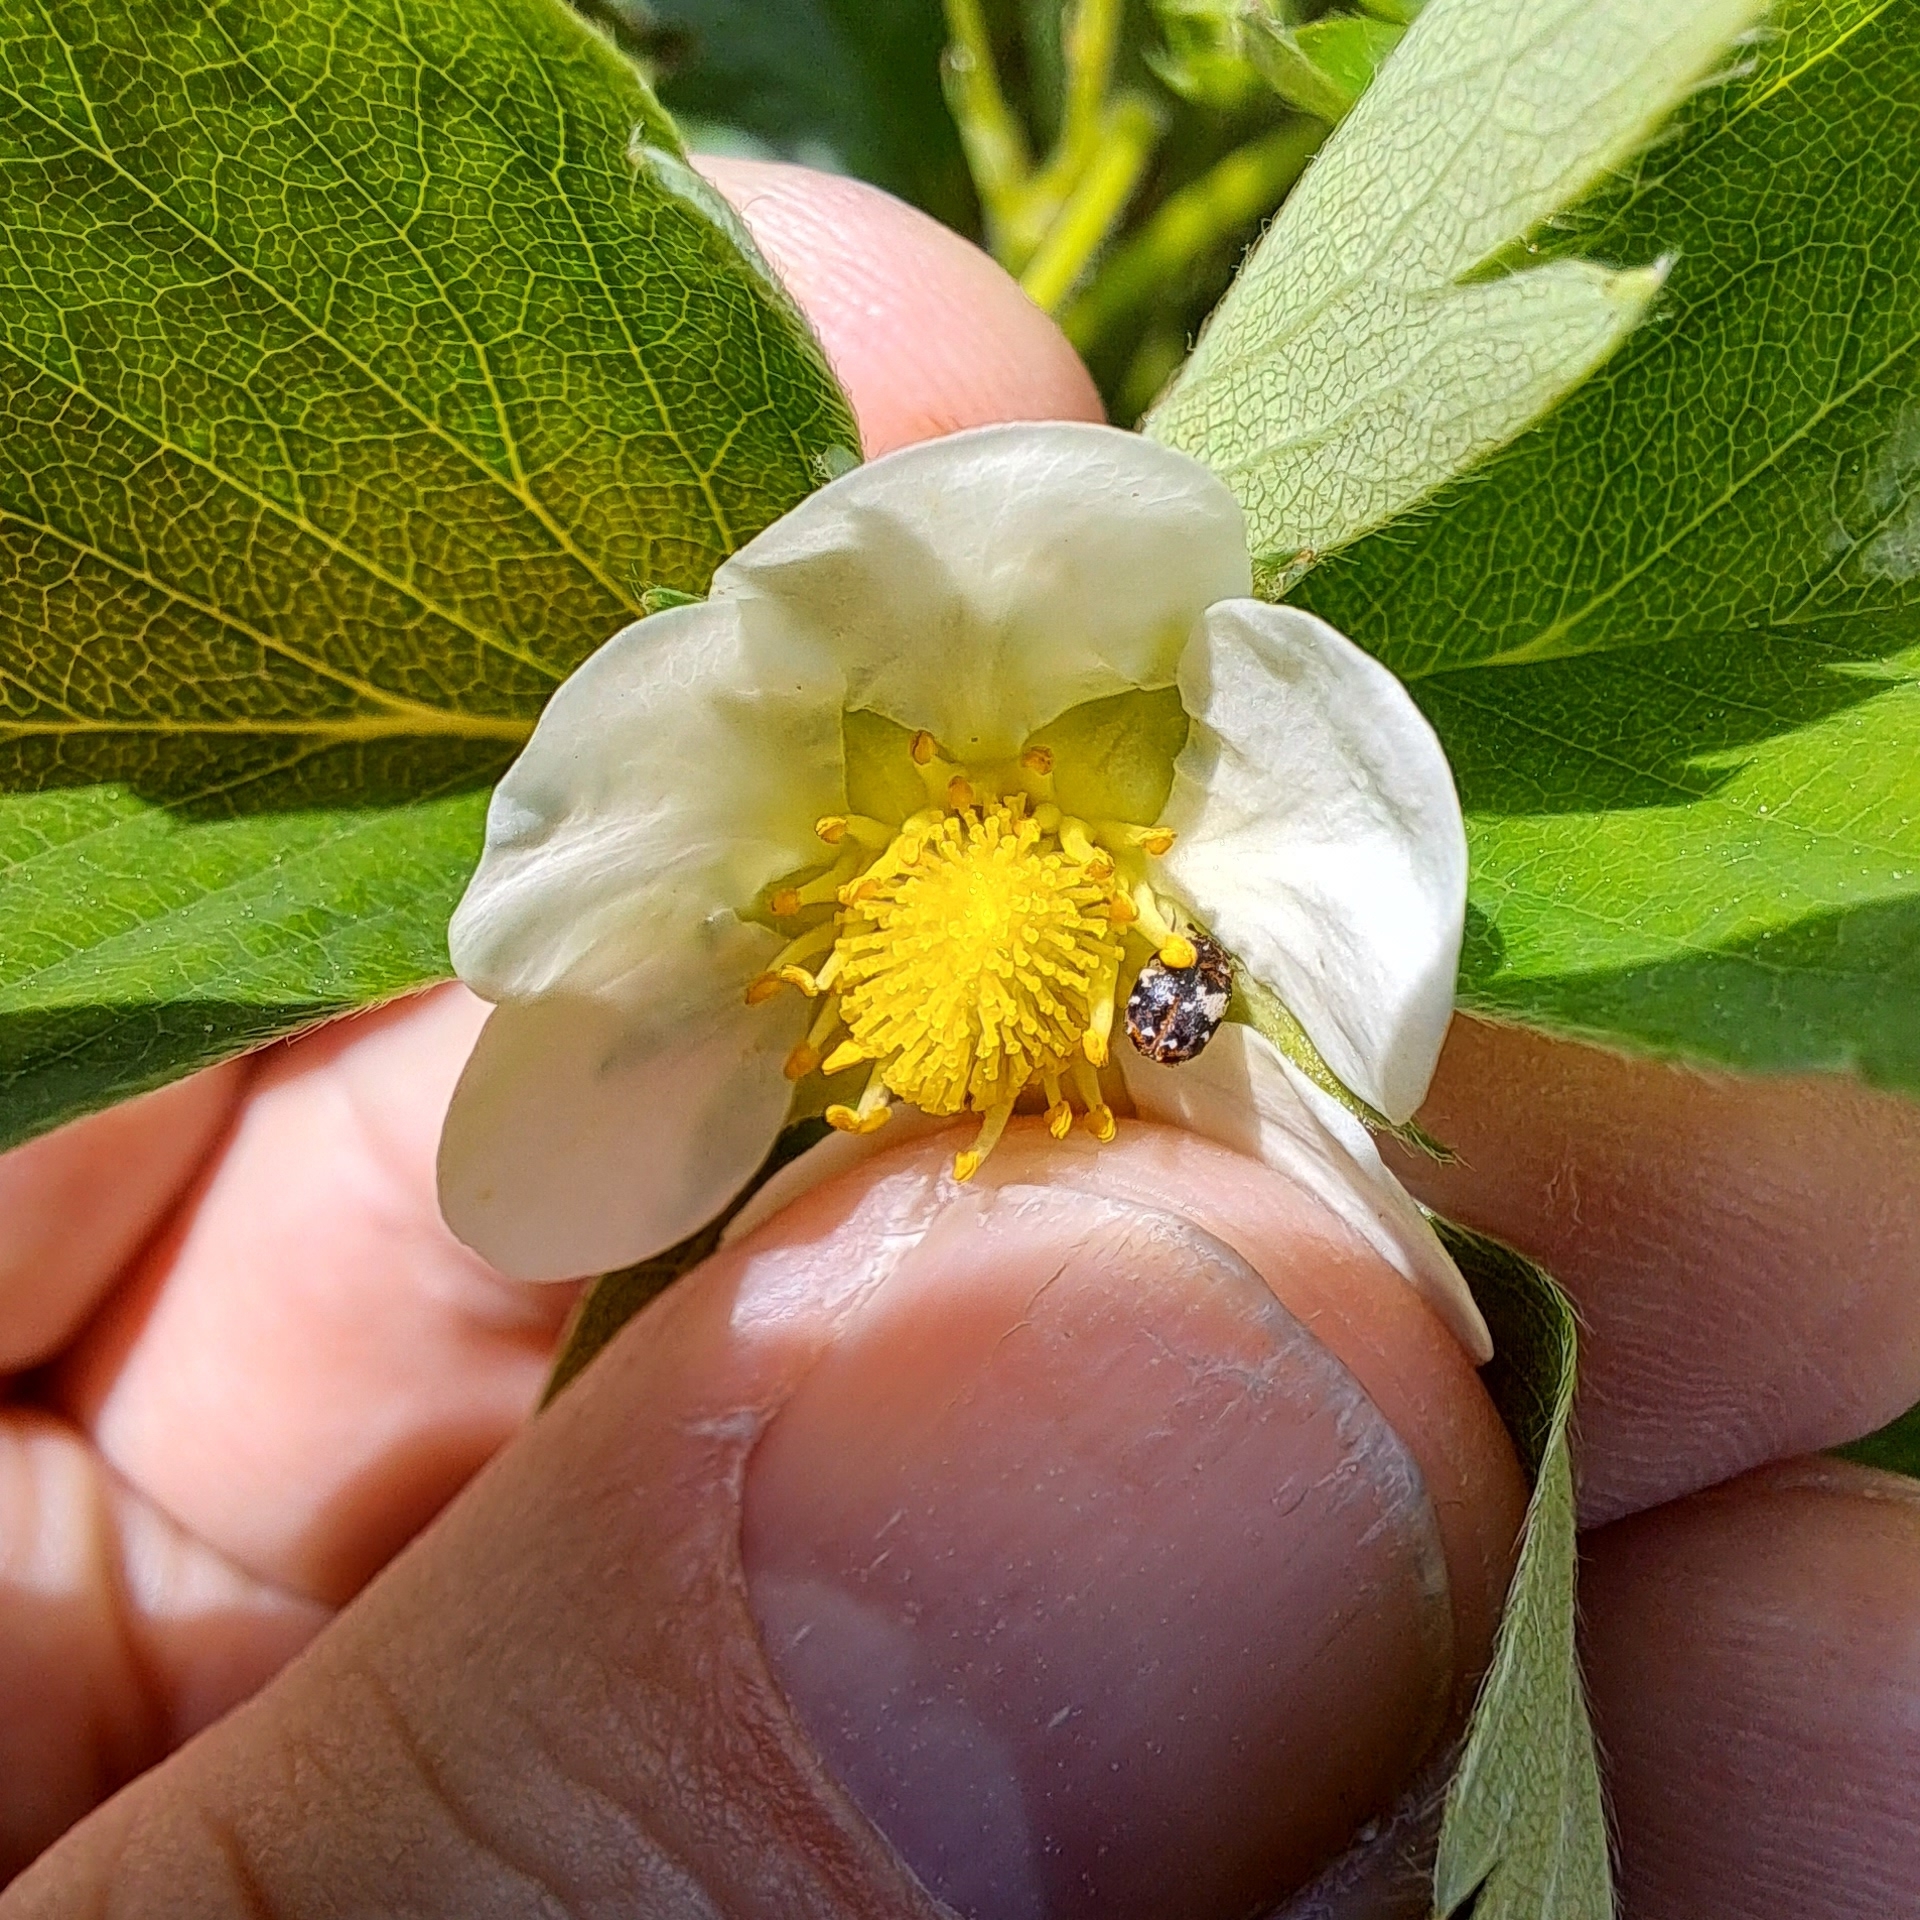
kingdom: Animalia
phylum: Arthropoda
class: Insecta
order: Coleoptera
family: Dermestidae
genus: Anthrenus
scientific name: Anthrenus pimpinellae
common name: Dermestid beetle
